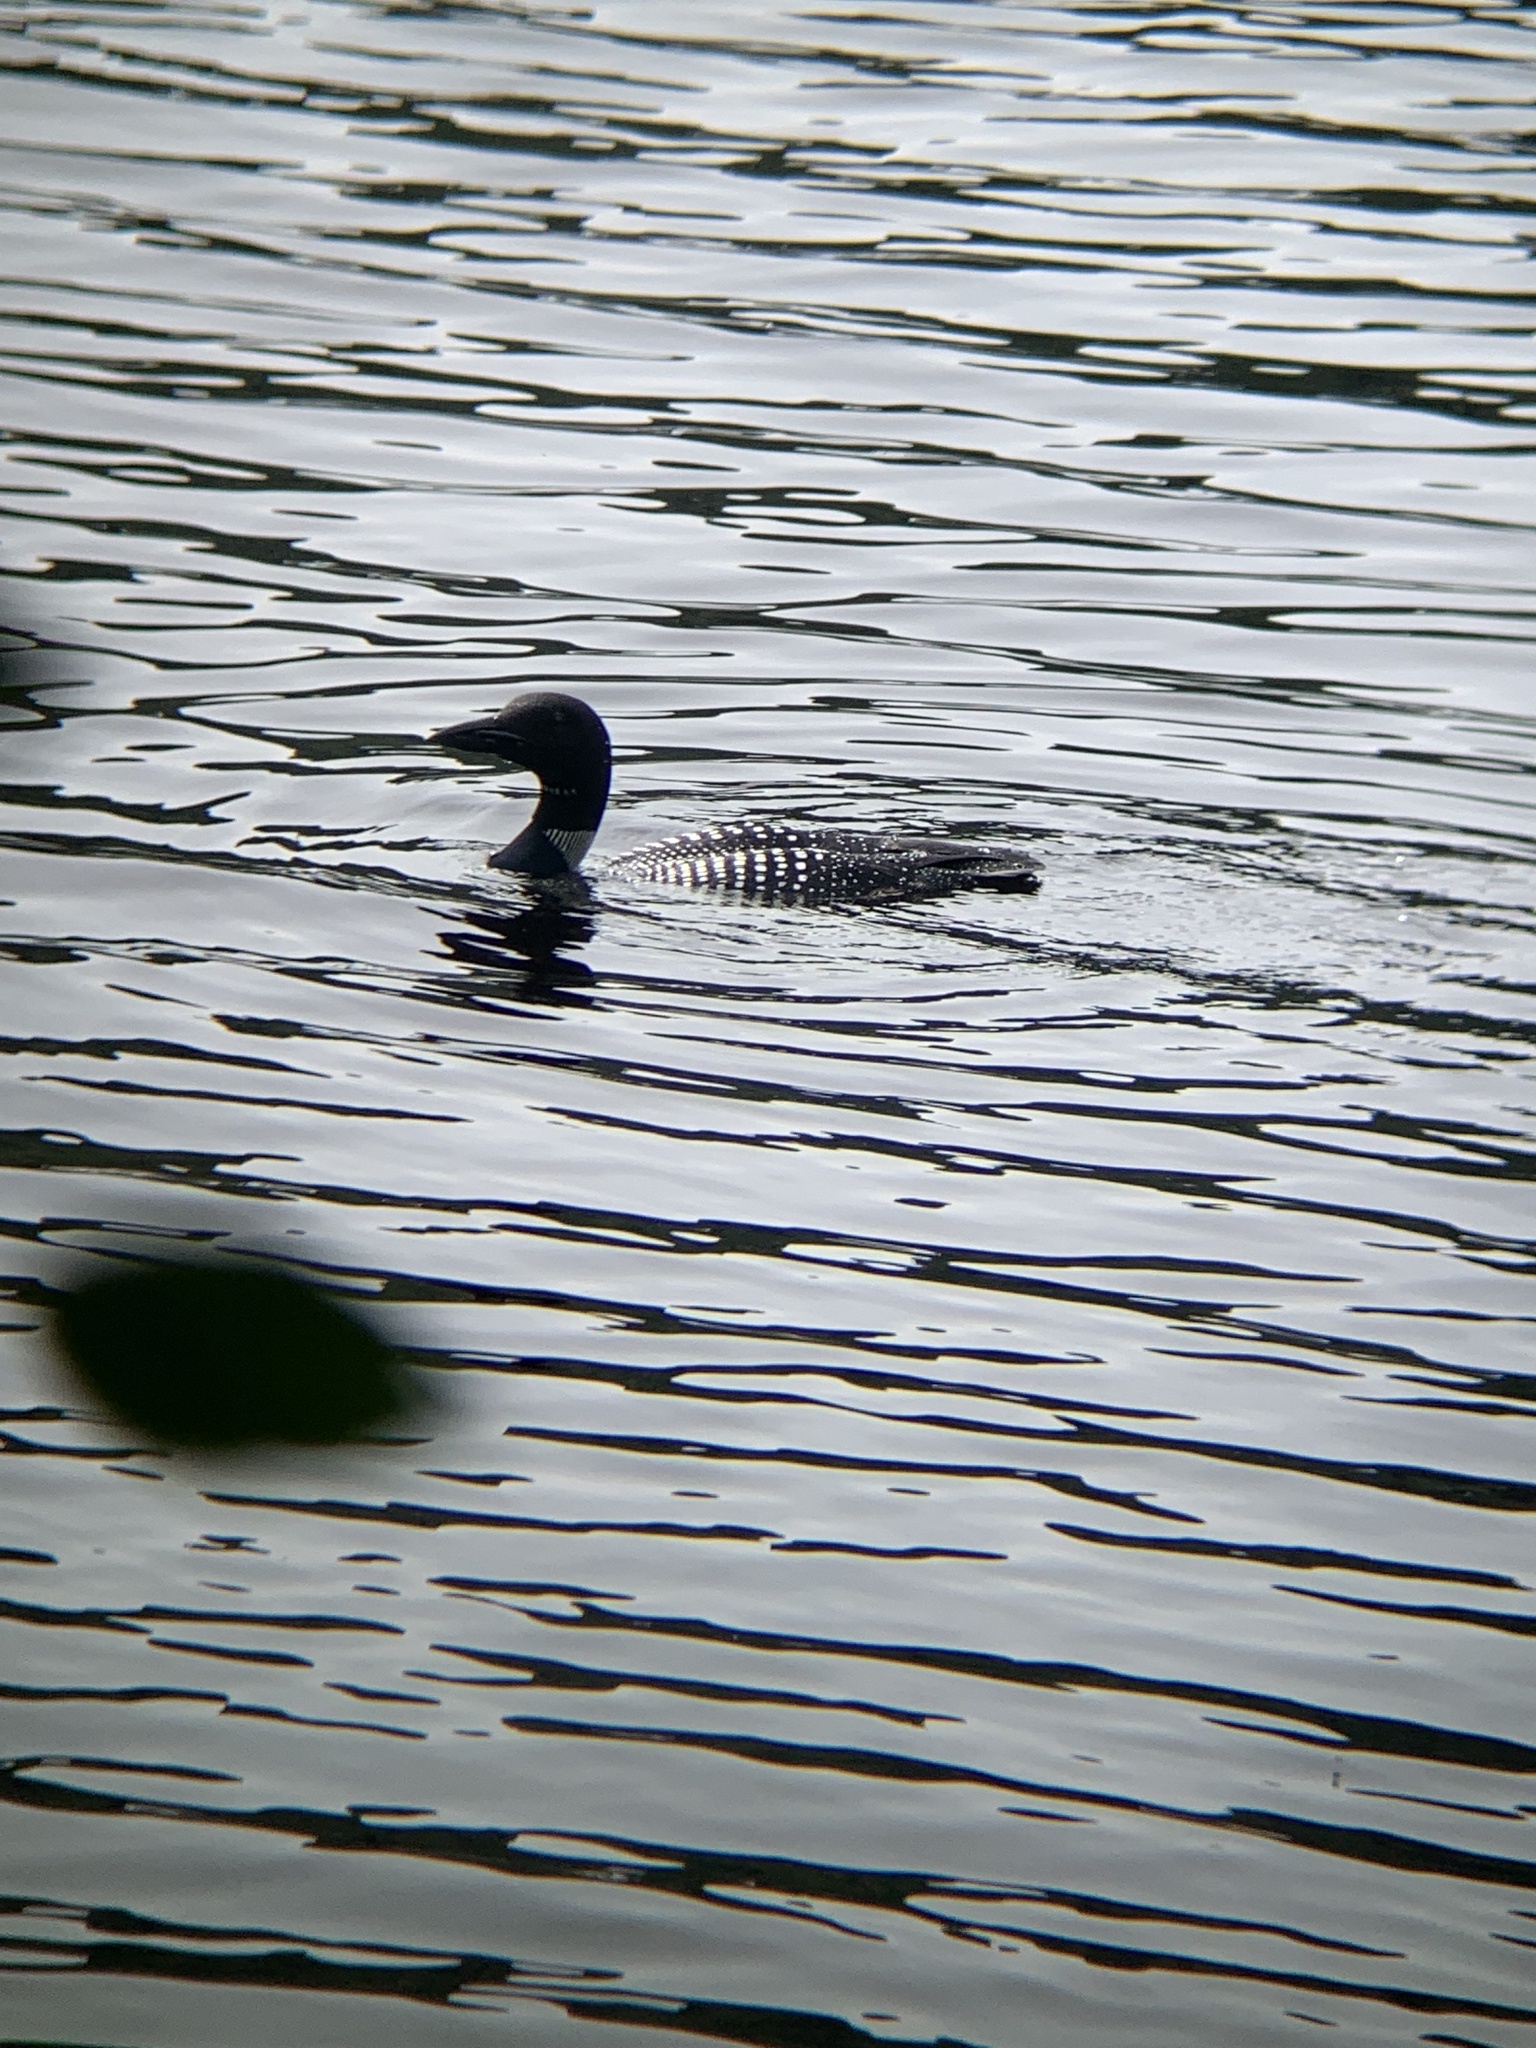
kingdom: Animalia
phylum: Chordata
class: Aves
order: Gaviiformes
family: Gaviidae
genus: Gavia
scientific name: Gavia immer
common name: Common loon
